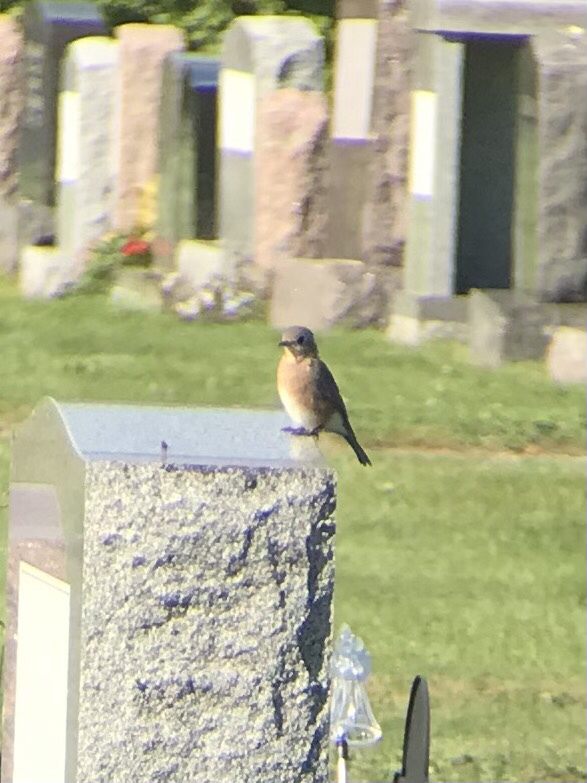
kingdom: Animalia
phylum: Chordata
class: Aves
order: Passeriformes
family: Turdidae
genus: Sialia
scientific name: Sialia sialis
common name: Eastern bluebird
